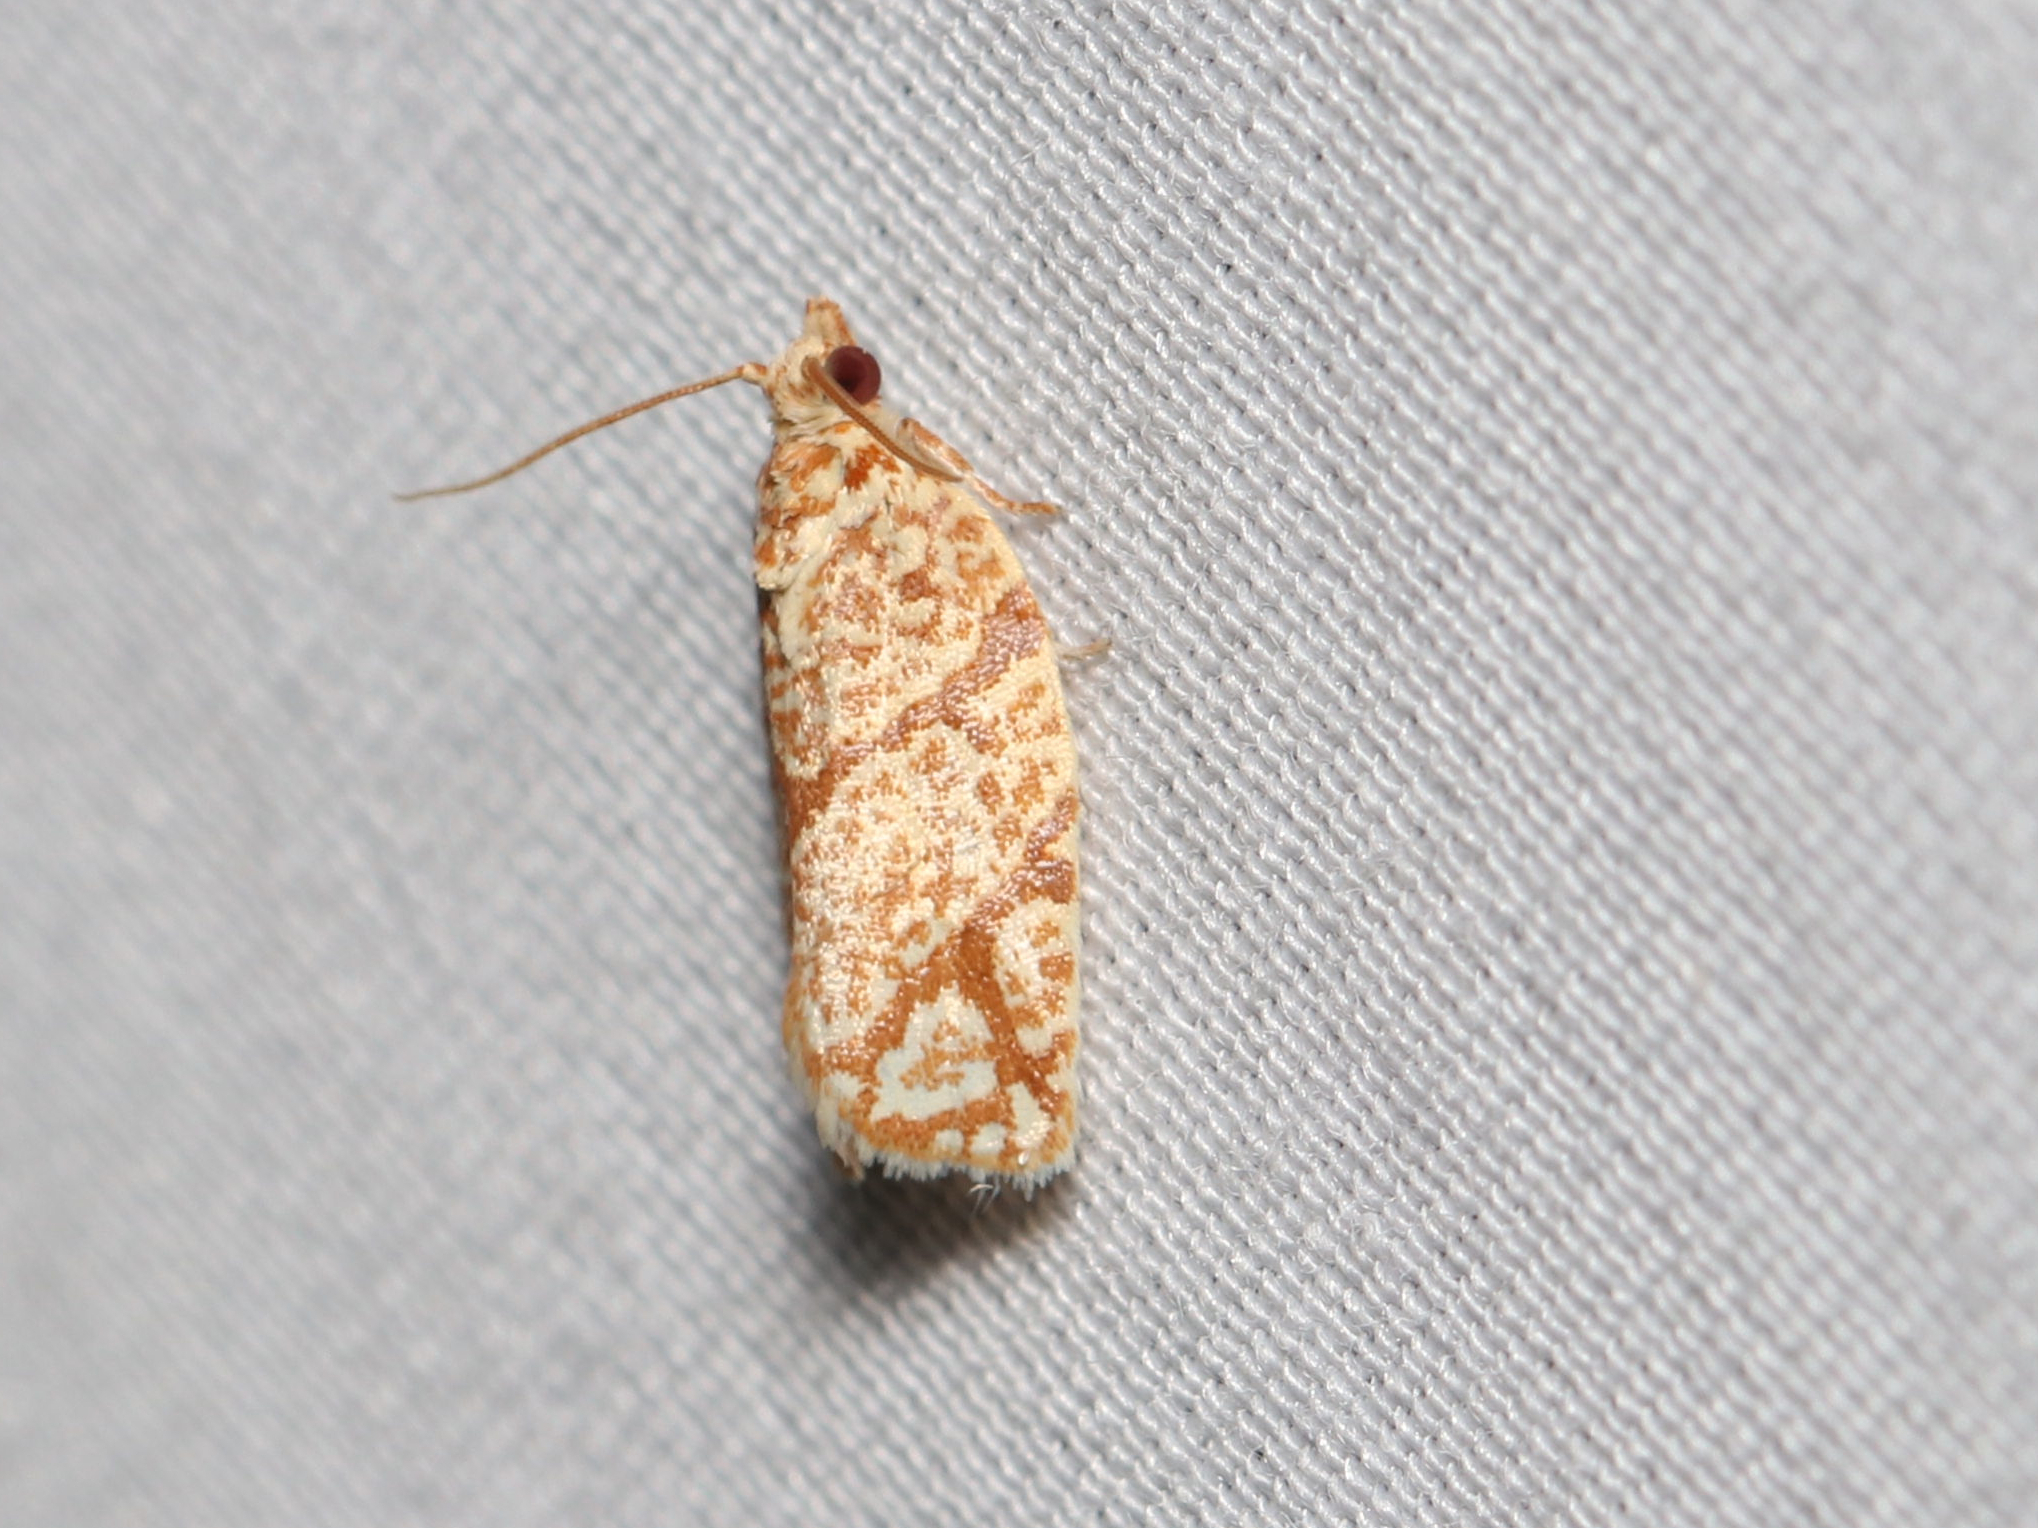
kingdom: Animalia
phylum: Arthropoda
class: Insecta
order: Lepidoptera
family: Tortricidae
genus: Argyrotaenia
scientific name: Argyrotaenia quercifoliana
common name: Yellow-winged oak leafroller moth
